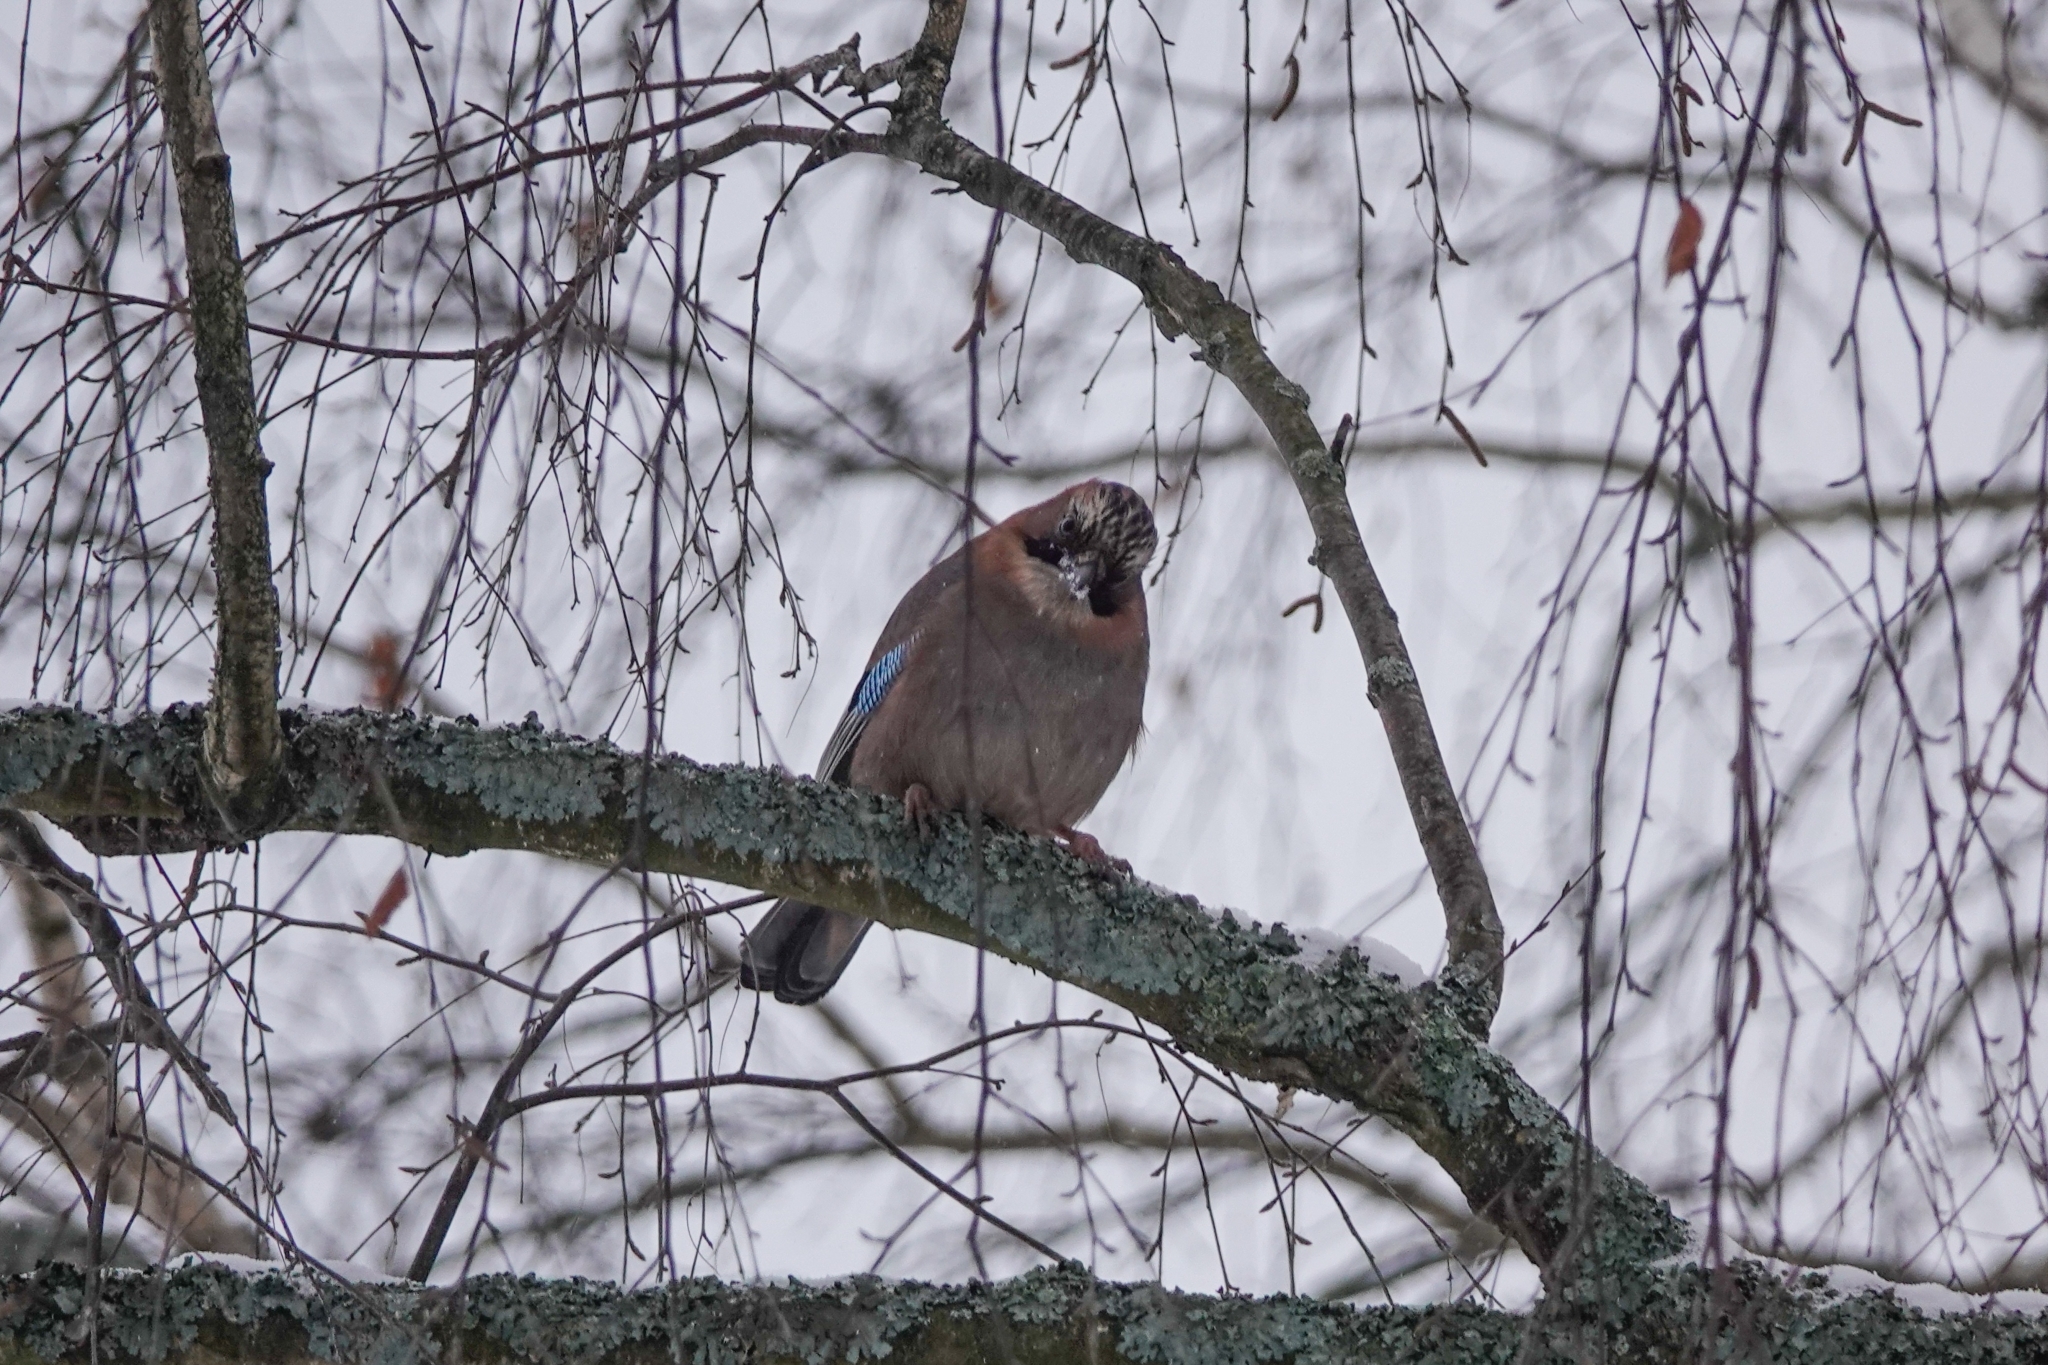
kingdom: Animalia
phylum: Chordata
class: Aves
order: Passeriformes
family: Corvidae
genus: Garrulus
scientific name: Garrulus glandarius
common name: Eurasian jay
